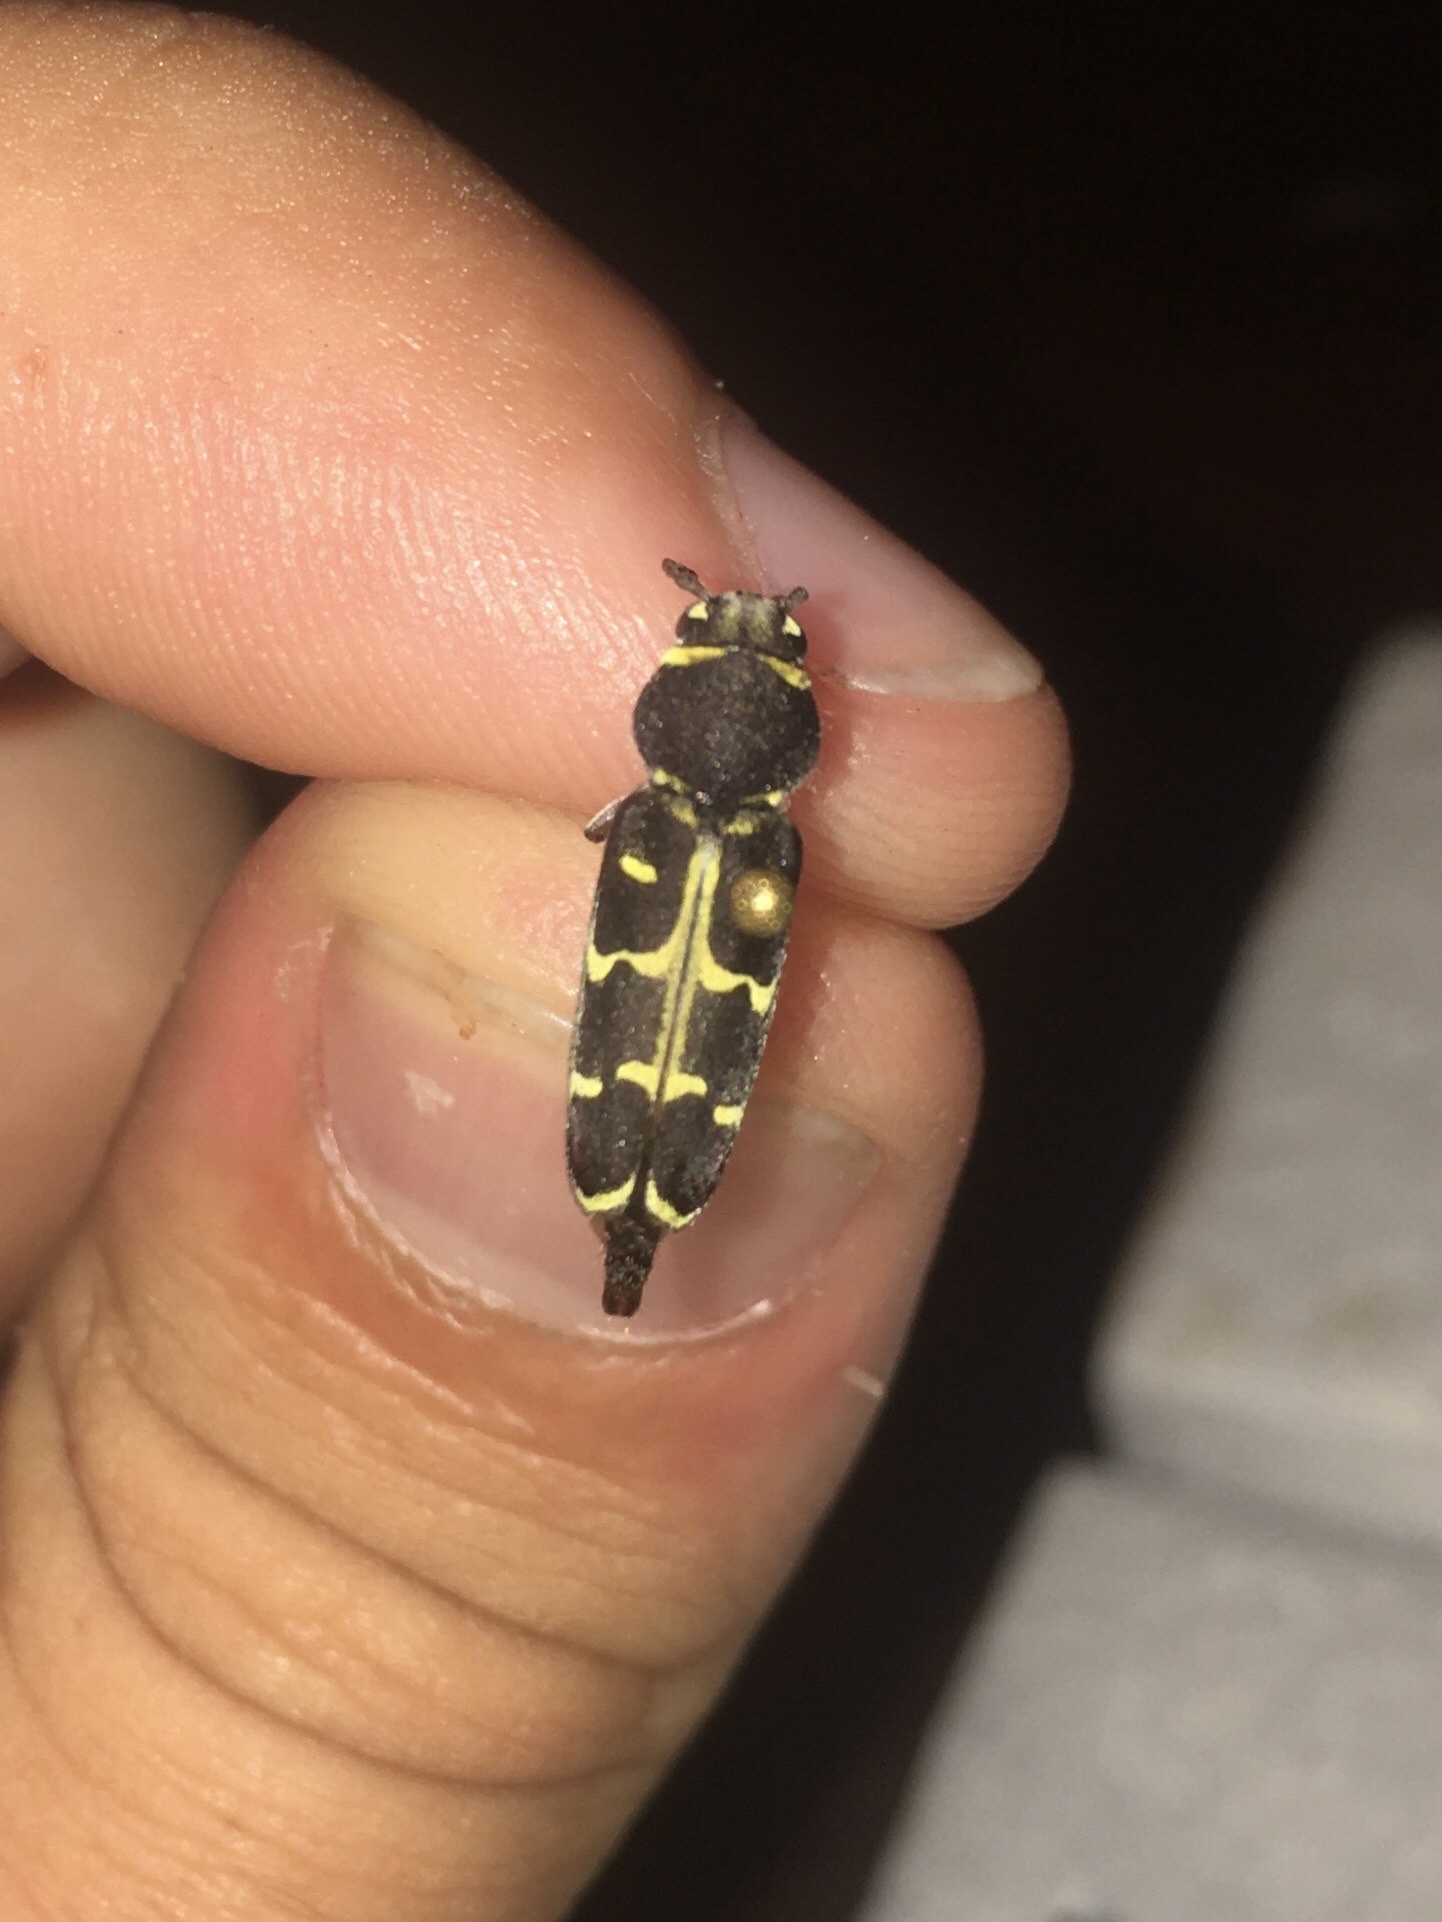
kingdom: Animalia
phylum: Arthropoda
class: Insecta
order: Coleoptera
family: Cerambycidae
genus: Xylotrechus
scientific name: Xylotrechus undulatus
